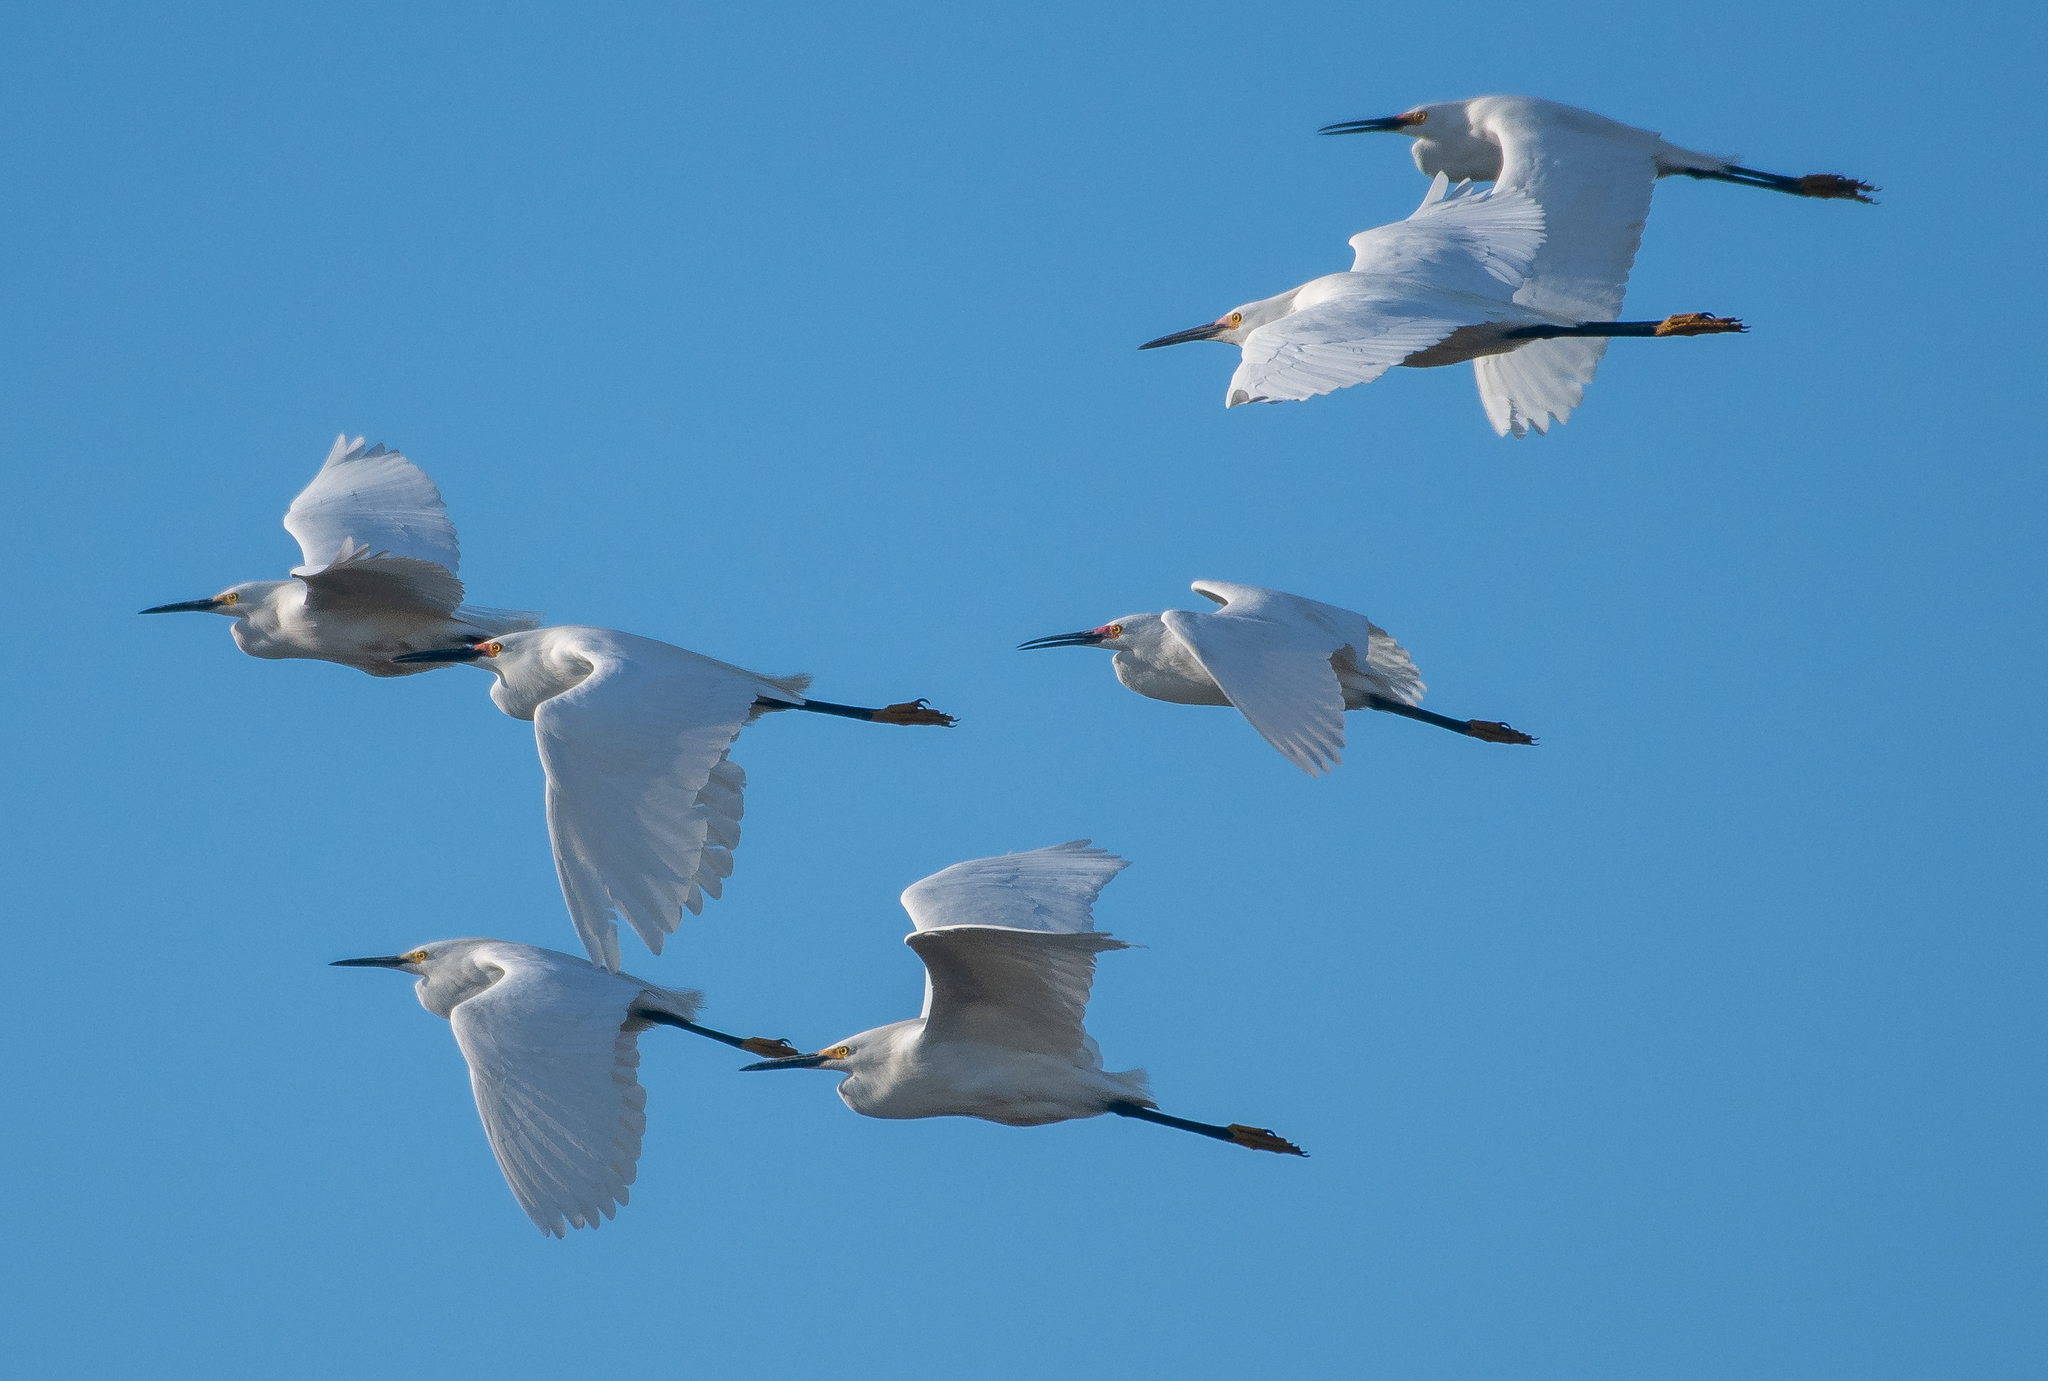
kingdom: Animalia
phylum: Chordata
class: Aves
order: Pelecaniformes
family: Ardeidae
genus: Egretta
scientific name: Egretta thula
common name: Snowy egret
